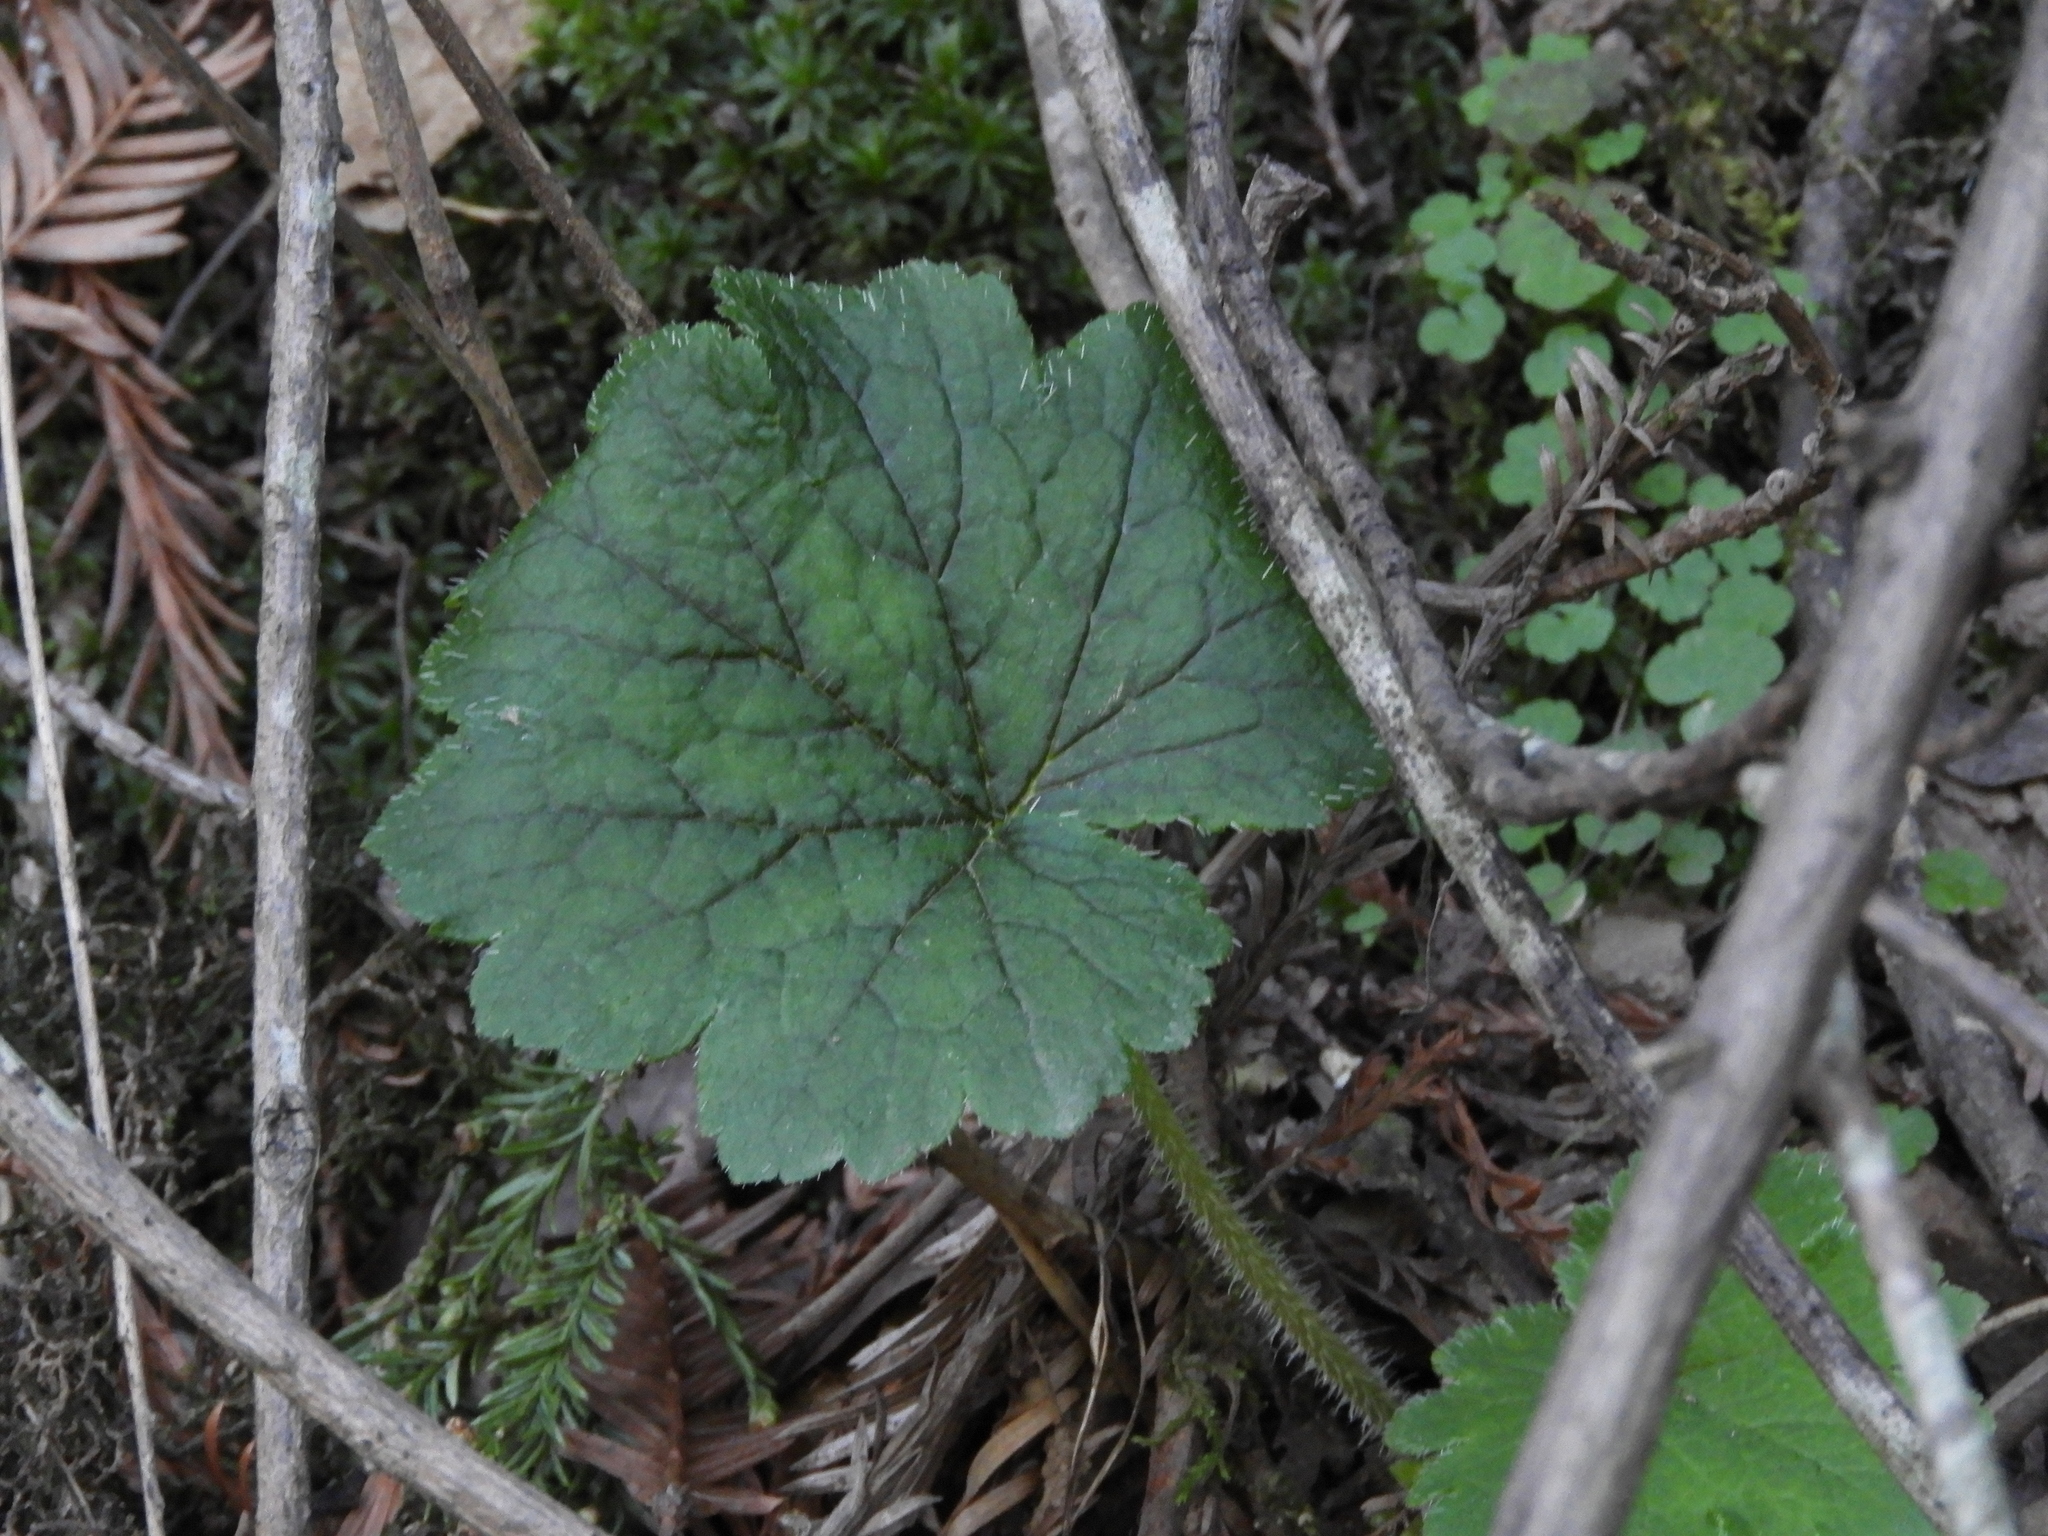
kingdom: Plantae
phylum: Tracheophyta
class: Magnoliopsida
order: Saxifragales
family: Saxifragaceae
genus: Tellima
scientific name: Tellima grandiflora
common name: Fringecups
